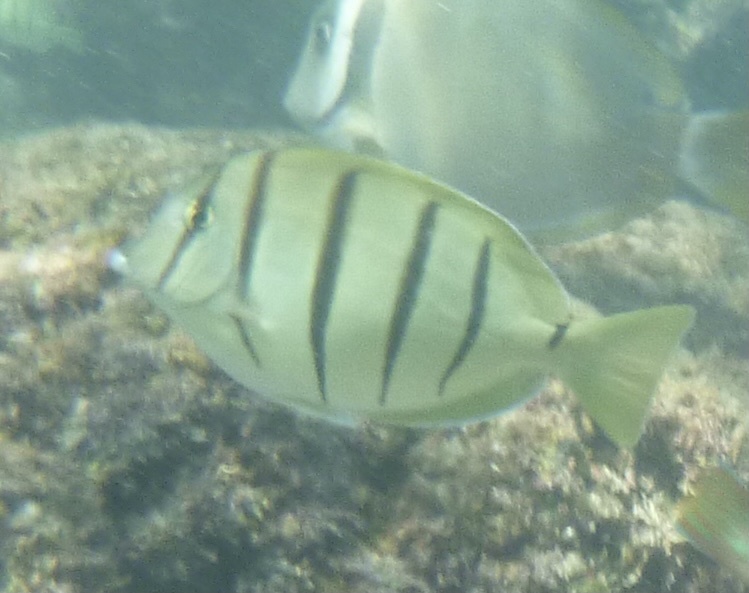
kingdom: Animalia
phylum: Chordata
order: Perciformes
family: Acanthuridae
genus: Acanthurus
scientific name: Acanthurus triostegus
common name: Convict surgeonfish
